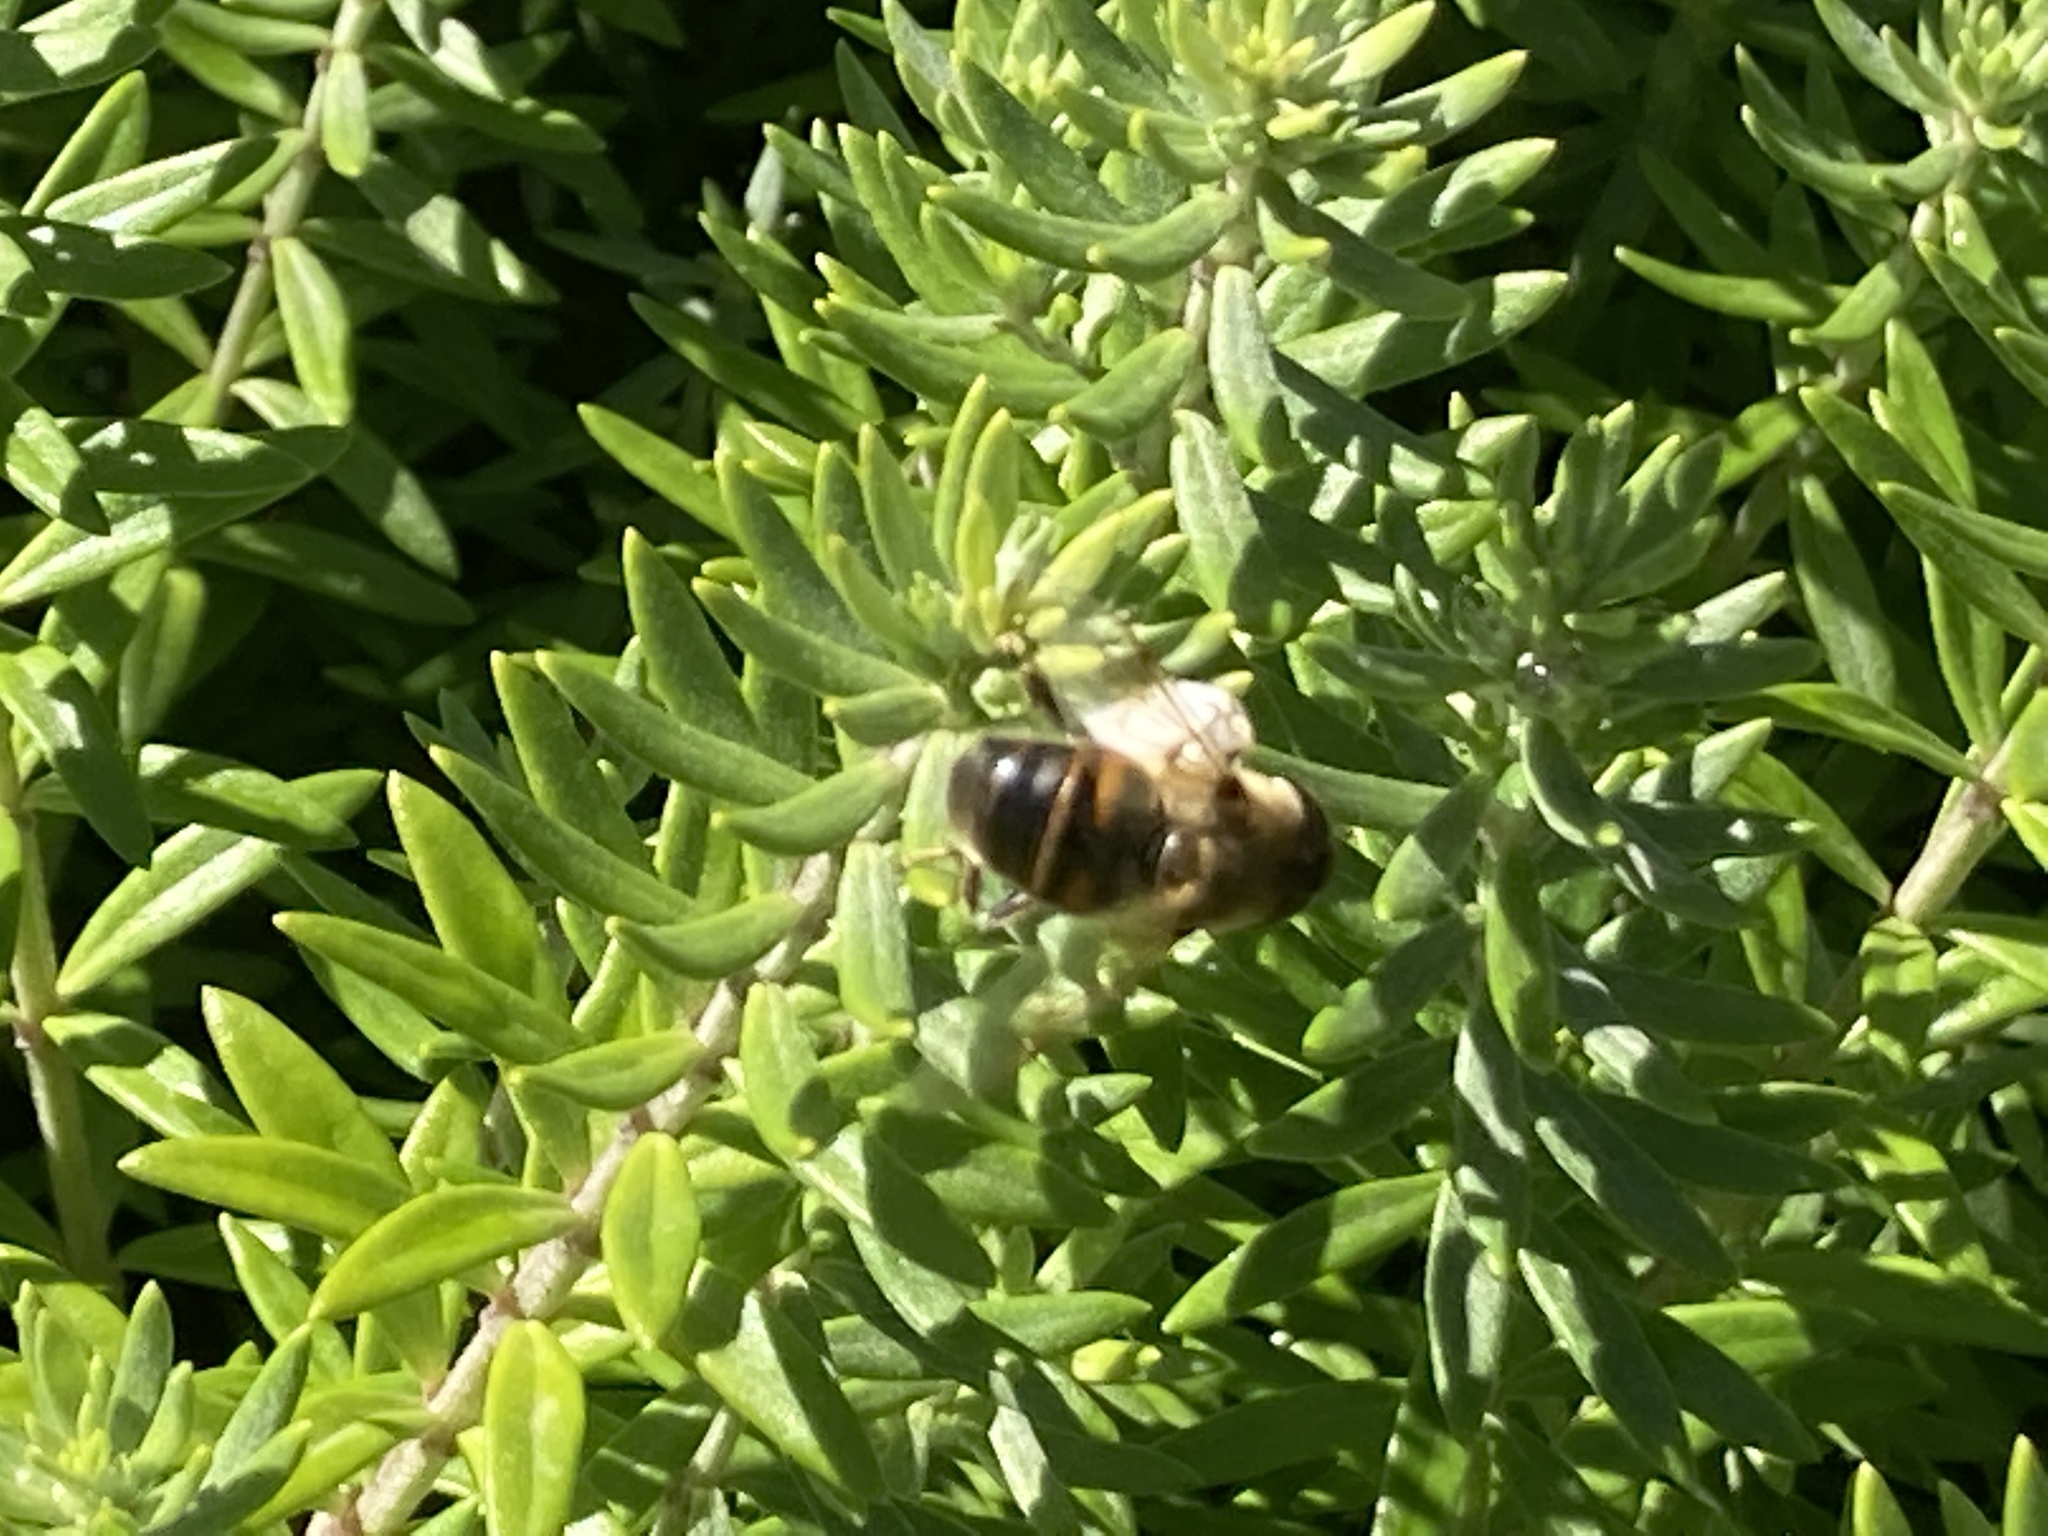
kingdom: Animalia
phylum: Arthropoda
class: Insecta
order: Diptera
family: Syrphidae
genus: Eristalis
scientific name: Eristalis tenax
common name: Drone fly
